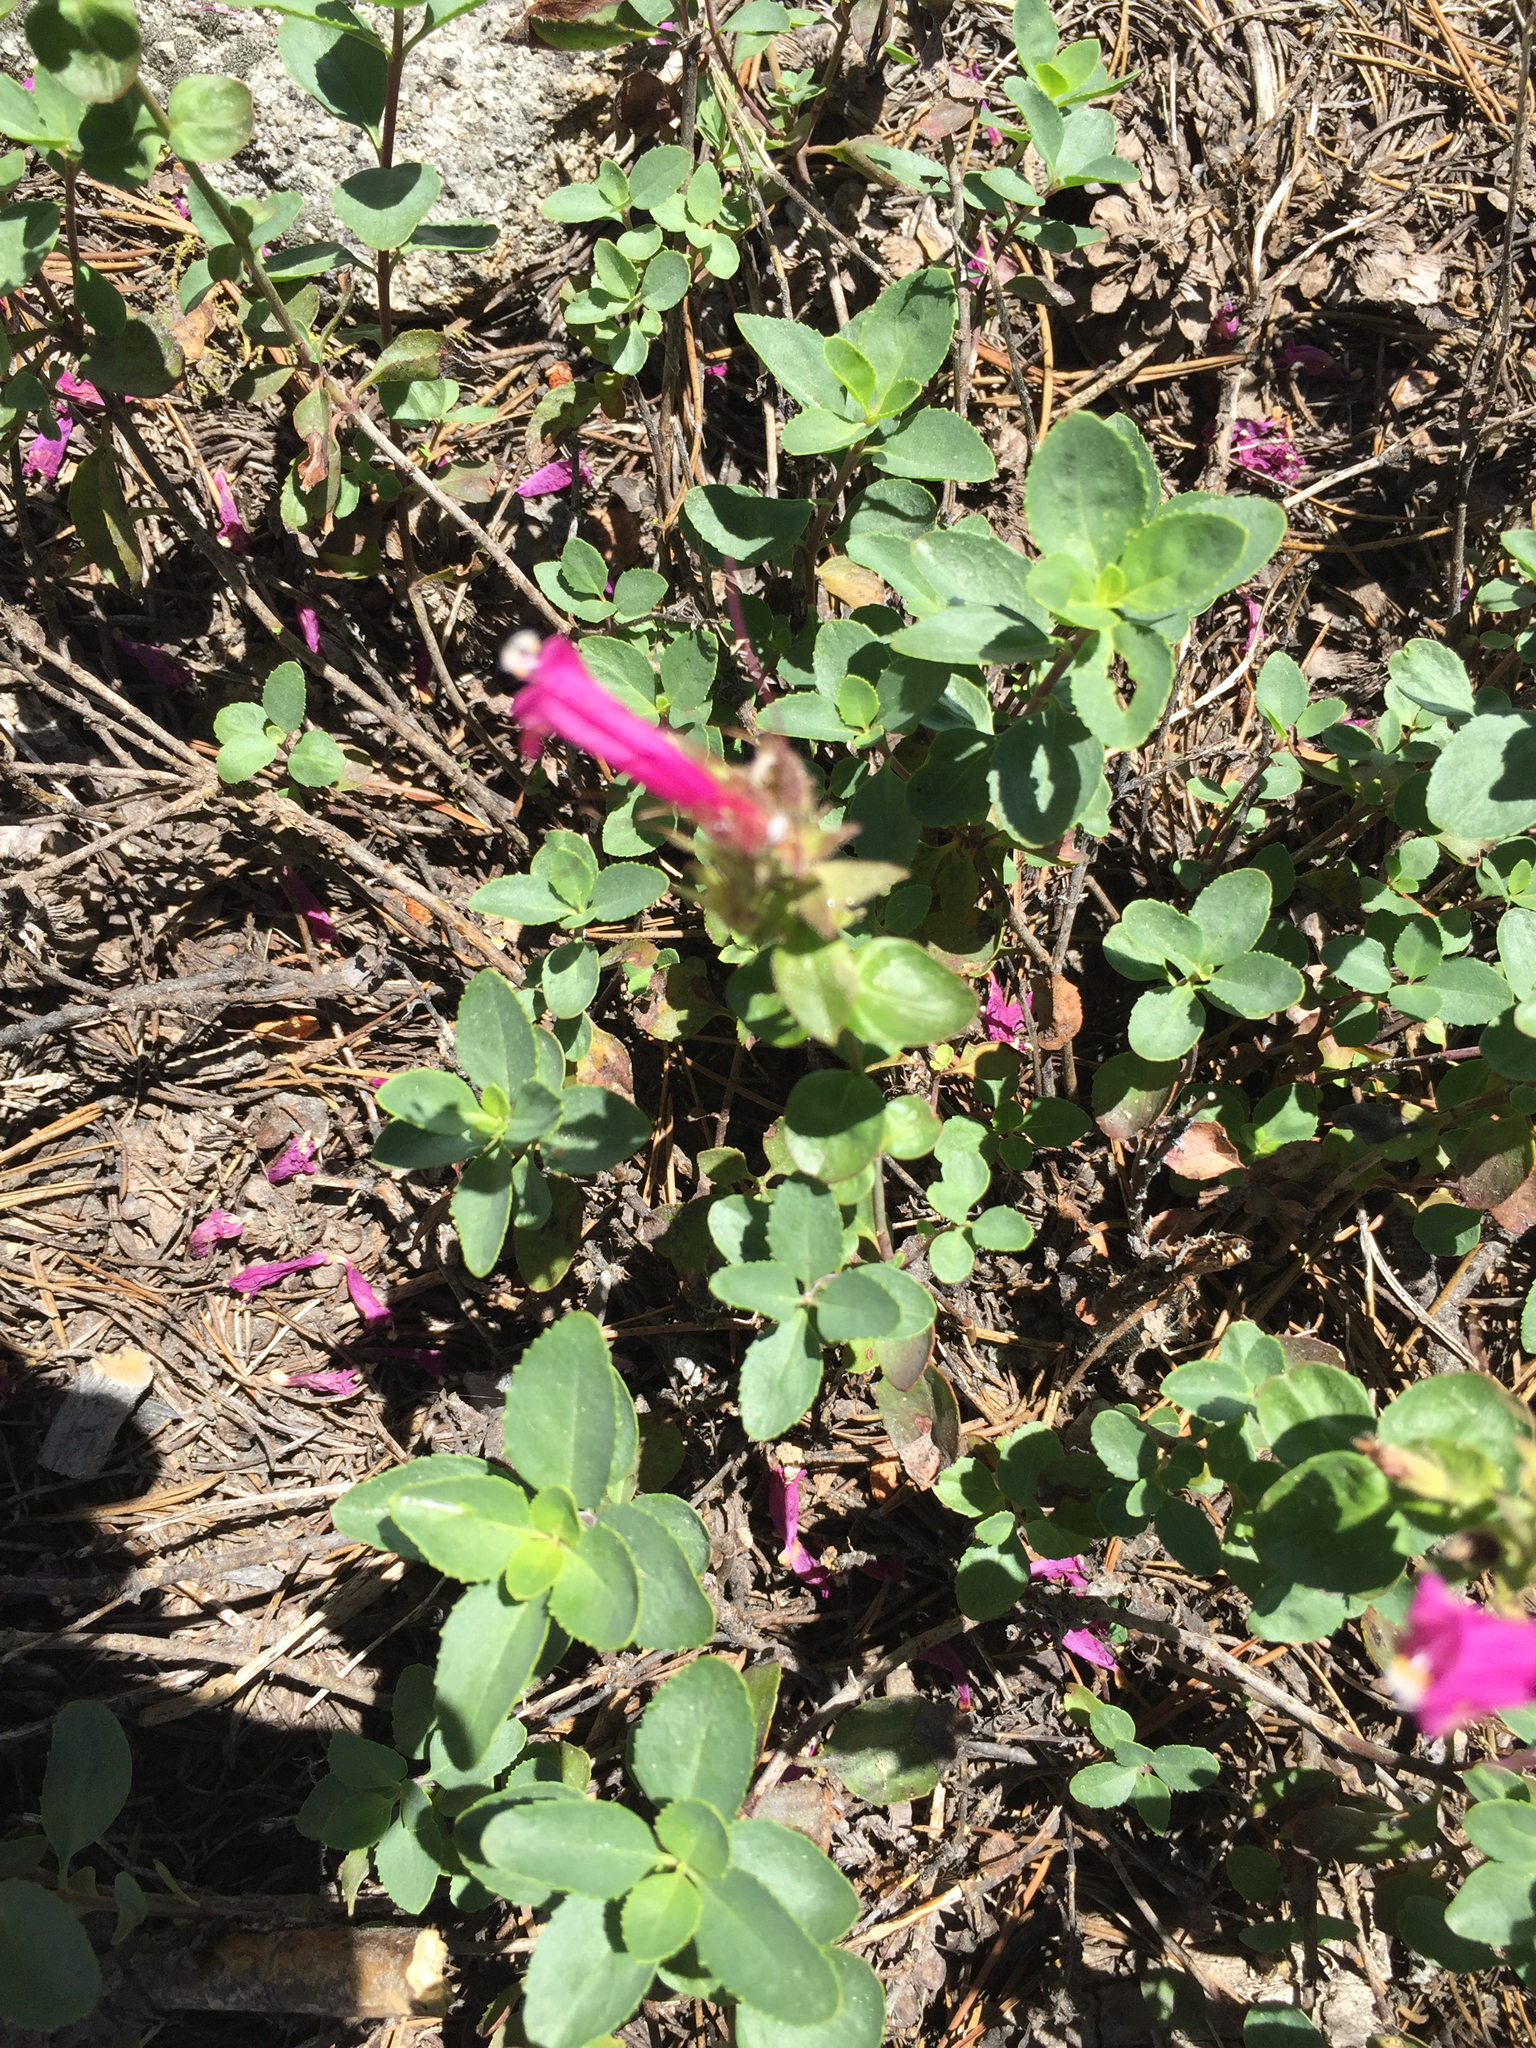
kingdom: Plantae
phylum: Tracheophyta
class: Magnoliopsida
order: Lamiales
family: Plantaginaceae
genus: Penstemon
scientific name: Penstemon newberryi
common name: Mountain-pride
